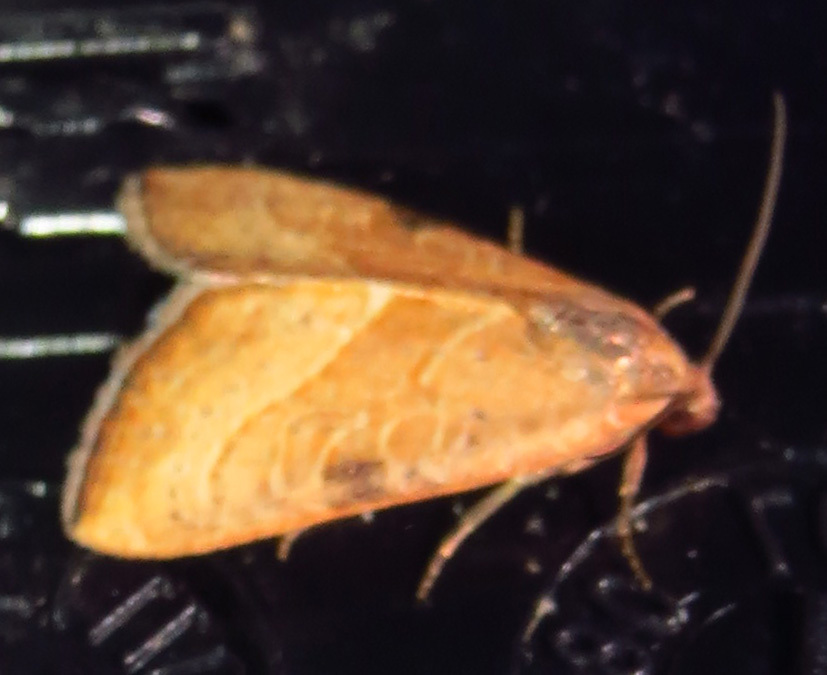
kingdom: Animalia
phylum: Arthropoda
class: Insecta
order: Lepidoptera
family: Noctuidae
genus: Galgula
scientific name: Galgula partita
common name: Wedgeling
